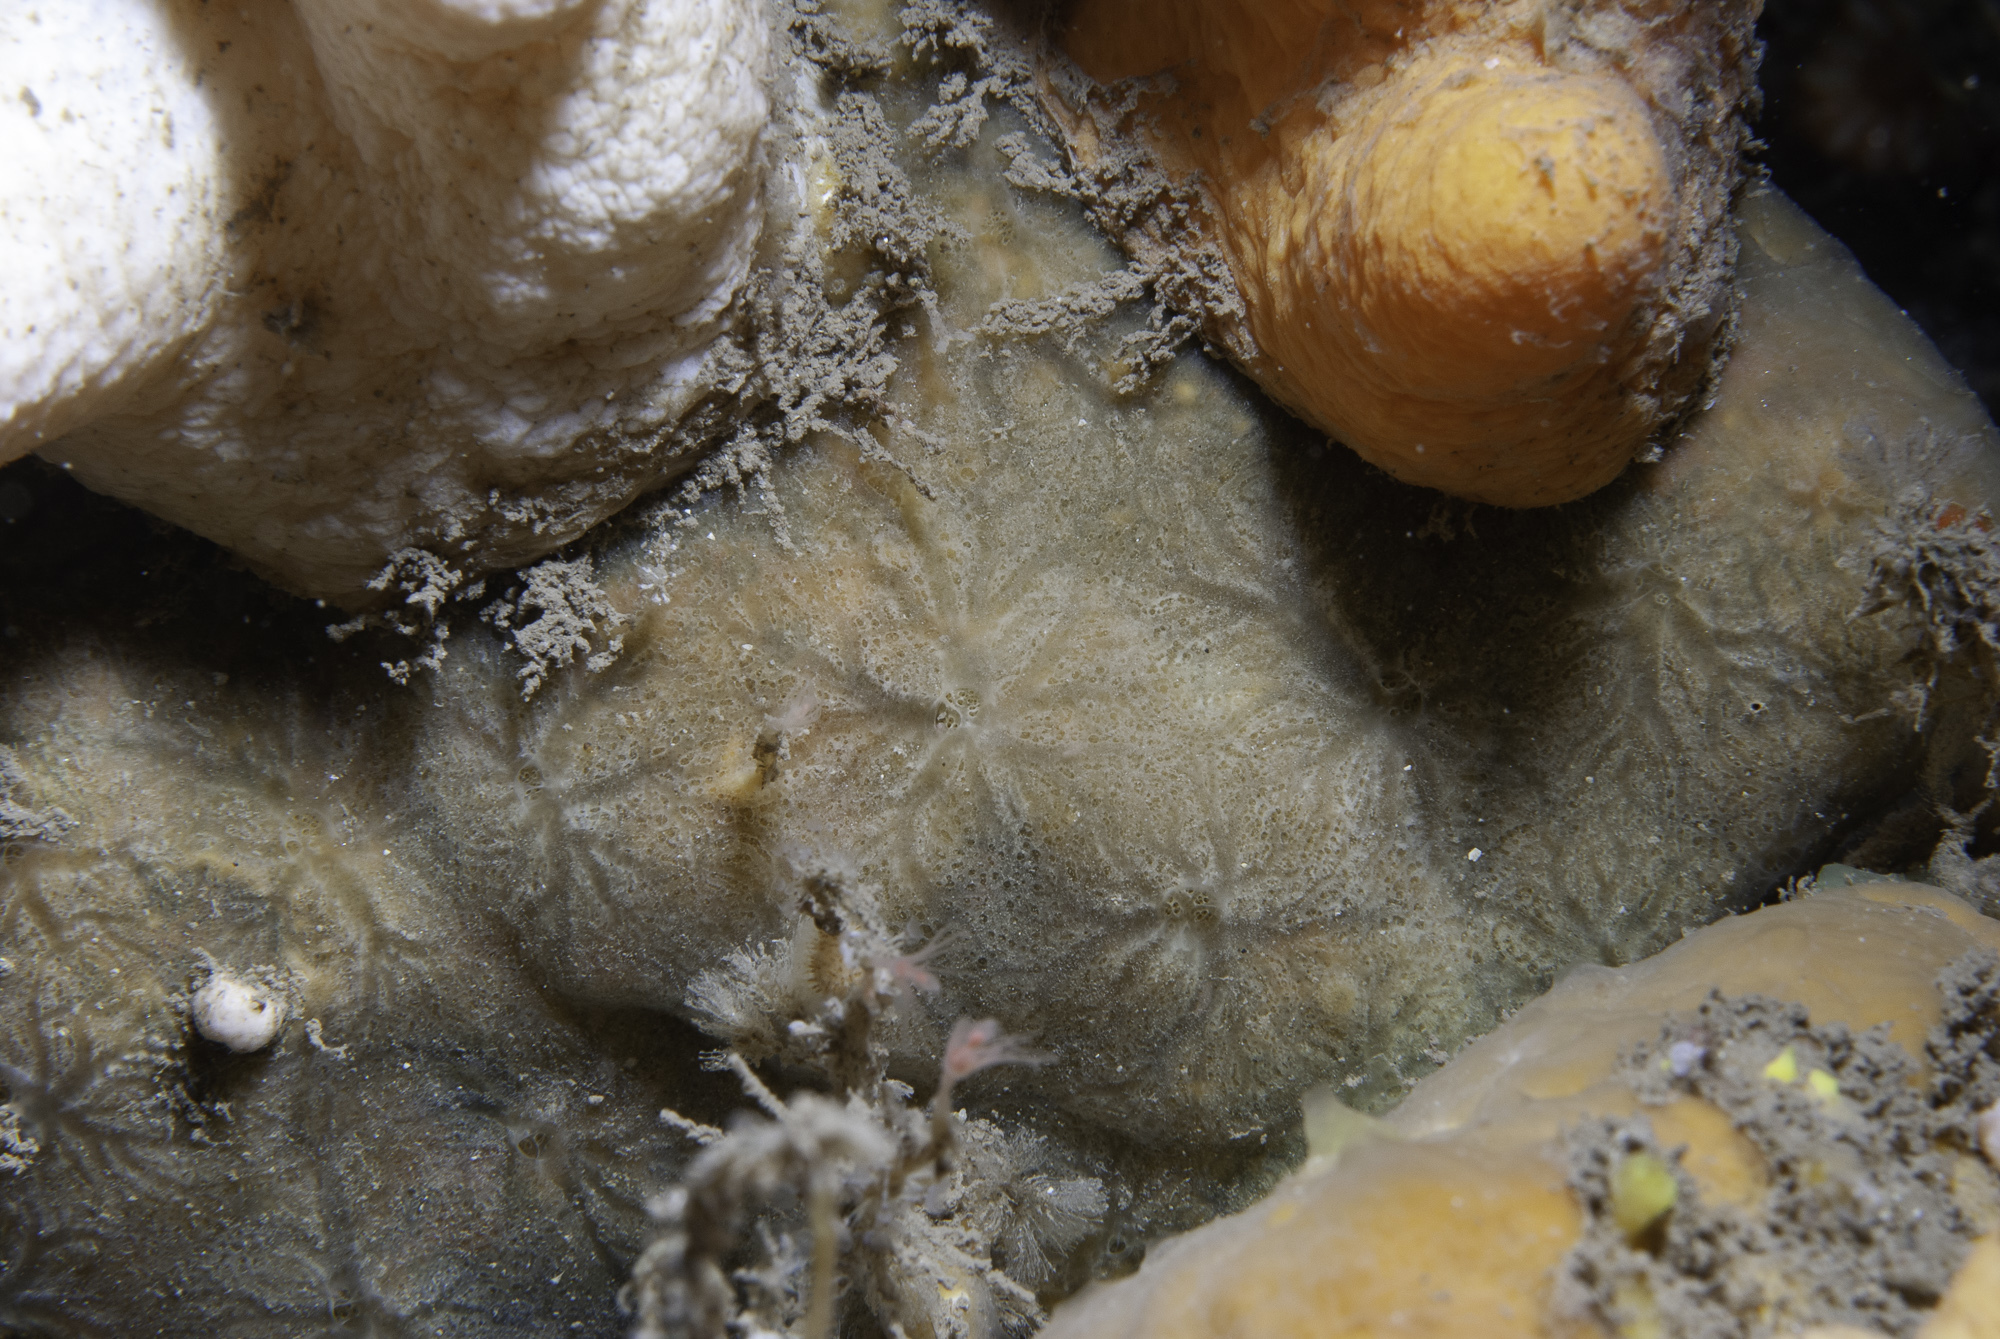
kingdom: Animalia
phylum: Porifera
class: Demospongiae
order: Poecilosclerida
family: Hymedesmiidae
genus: Hymedesmia
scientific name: Hymedesmia peachii
